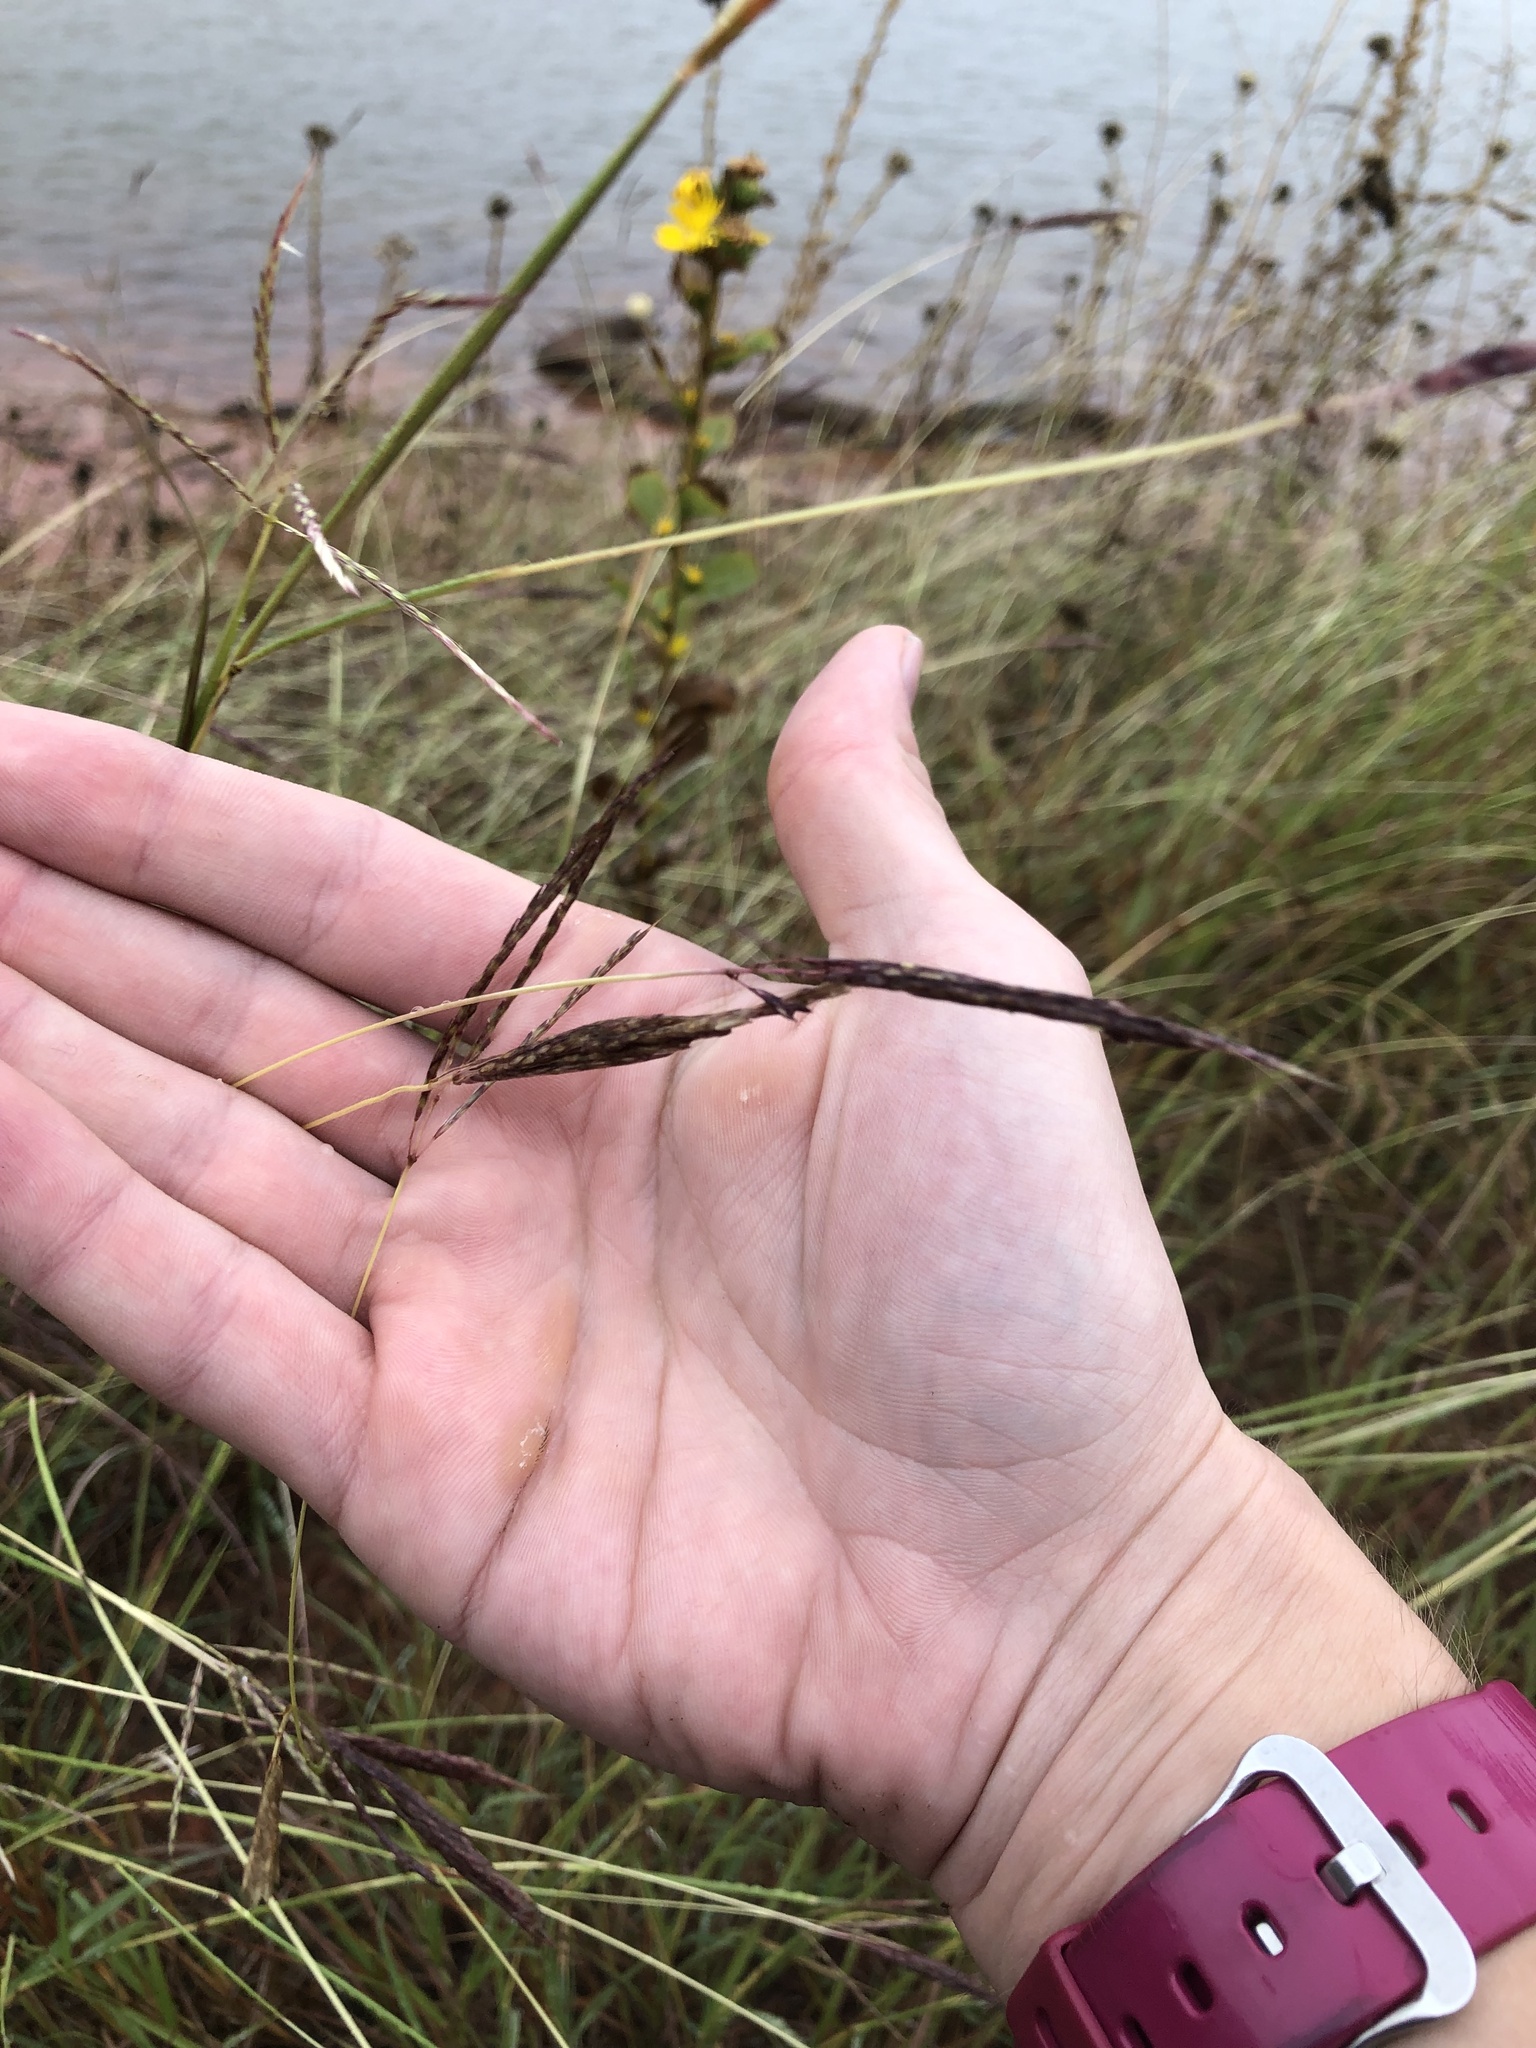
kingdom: Plantae
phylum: Tracheophyta
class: Liliopsida
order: Poales
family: Poaceae
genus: Bothriochloa
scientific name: Bothriochloa ischaemum
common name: Yellow bluestem
